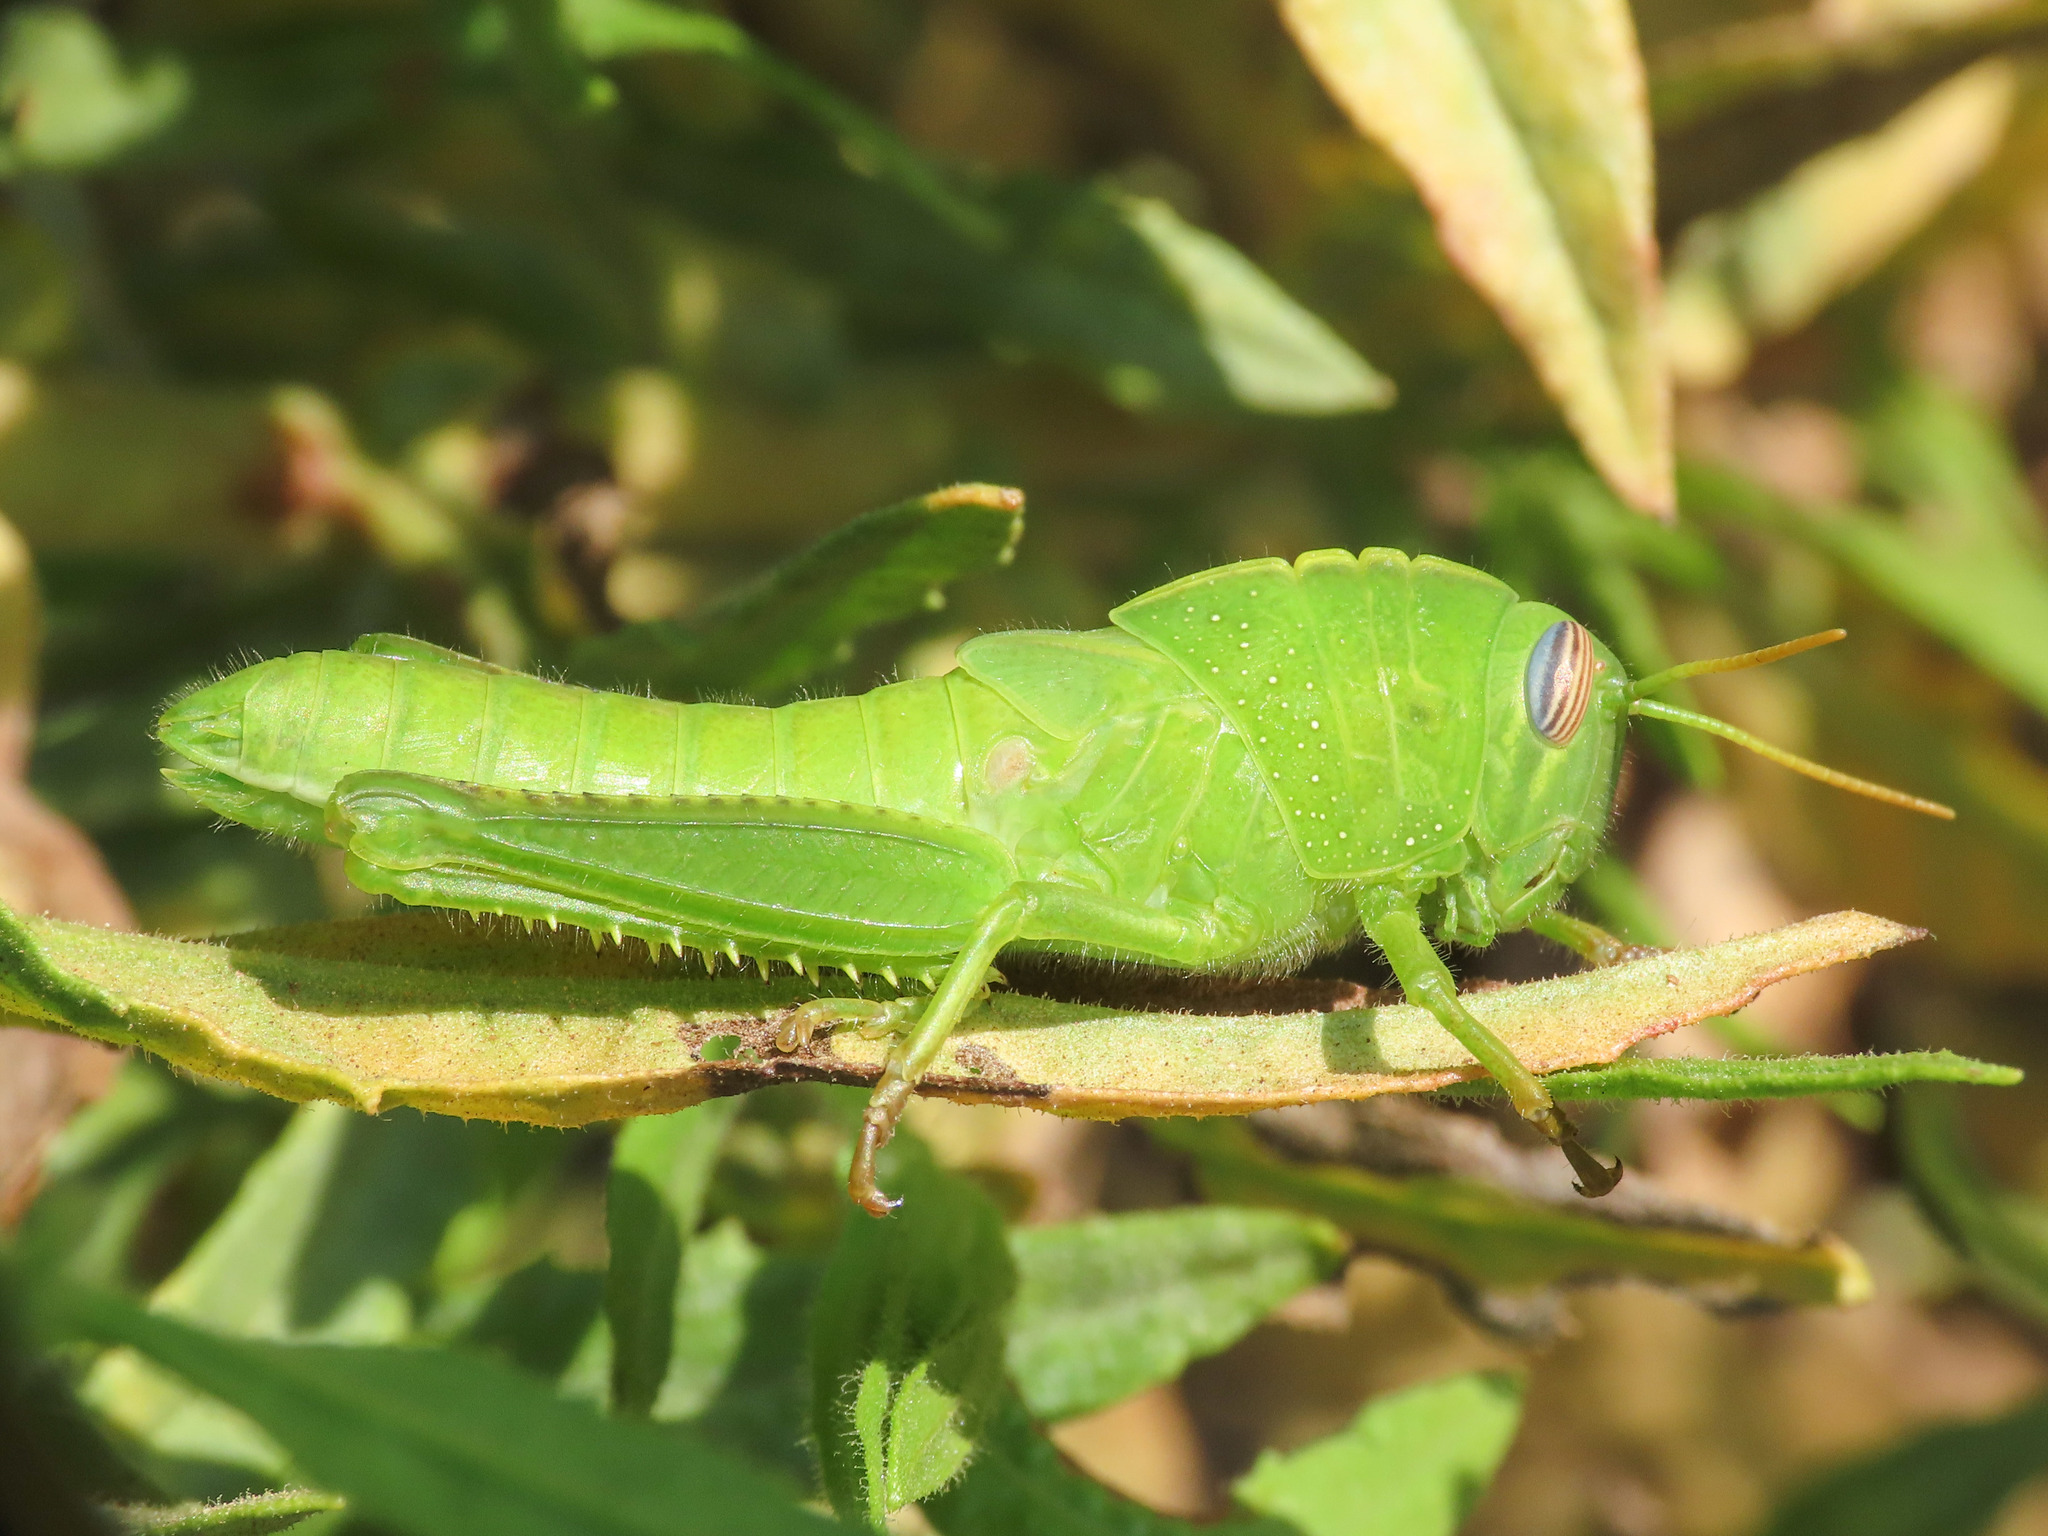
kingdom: Animalia
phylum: Arthropoda
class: Insecta
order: Orthoptera
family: Acrididae
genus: Anacridium
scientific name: Anacridium aegyptium
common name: Egyptian grasshopper
